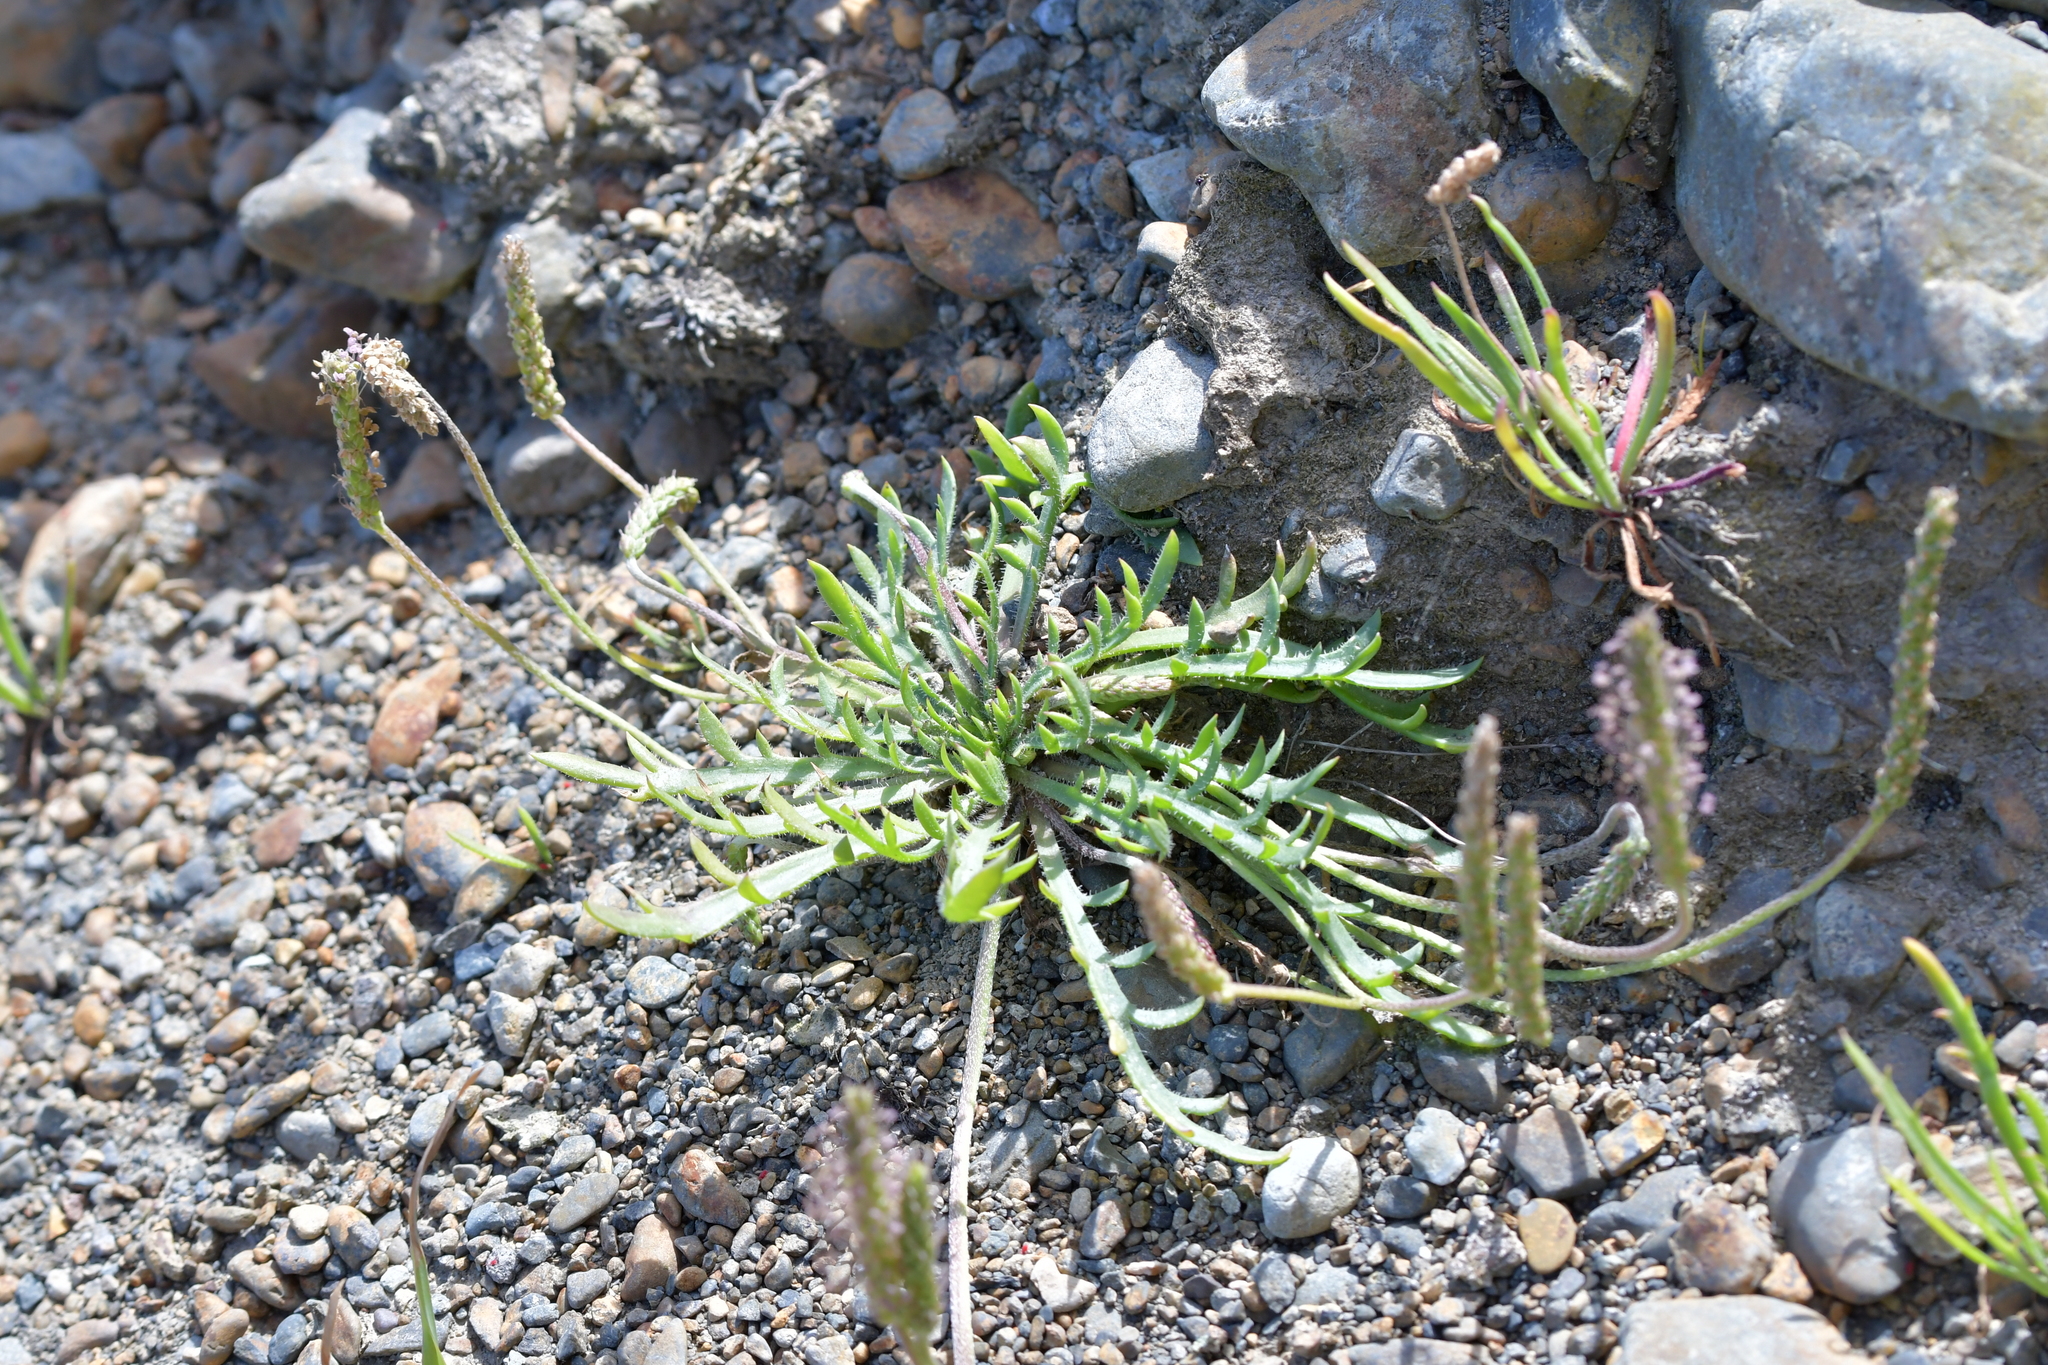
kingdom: Plantae
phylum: Tracheophyta
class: Magnoliopsida
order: Lamiales
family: Plantaginaceae
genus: Plantago
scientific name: Plantago coronopus
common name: Buck's-horn plantain
